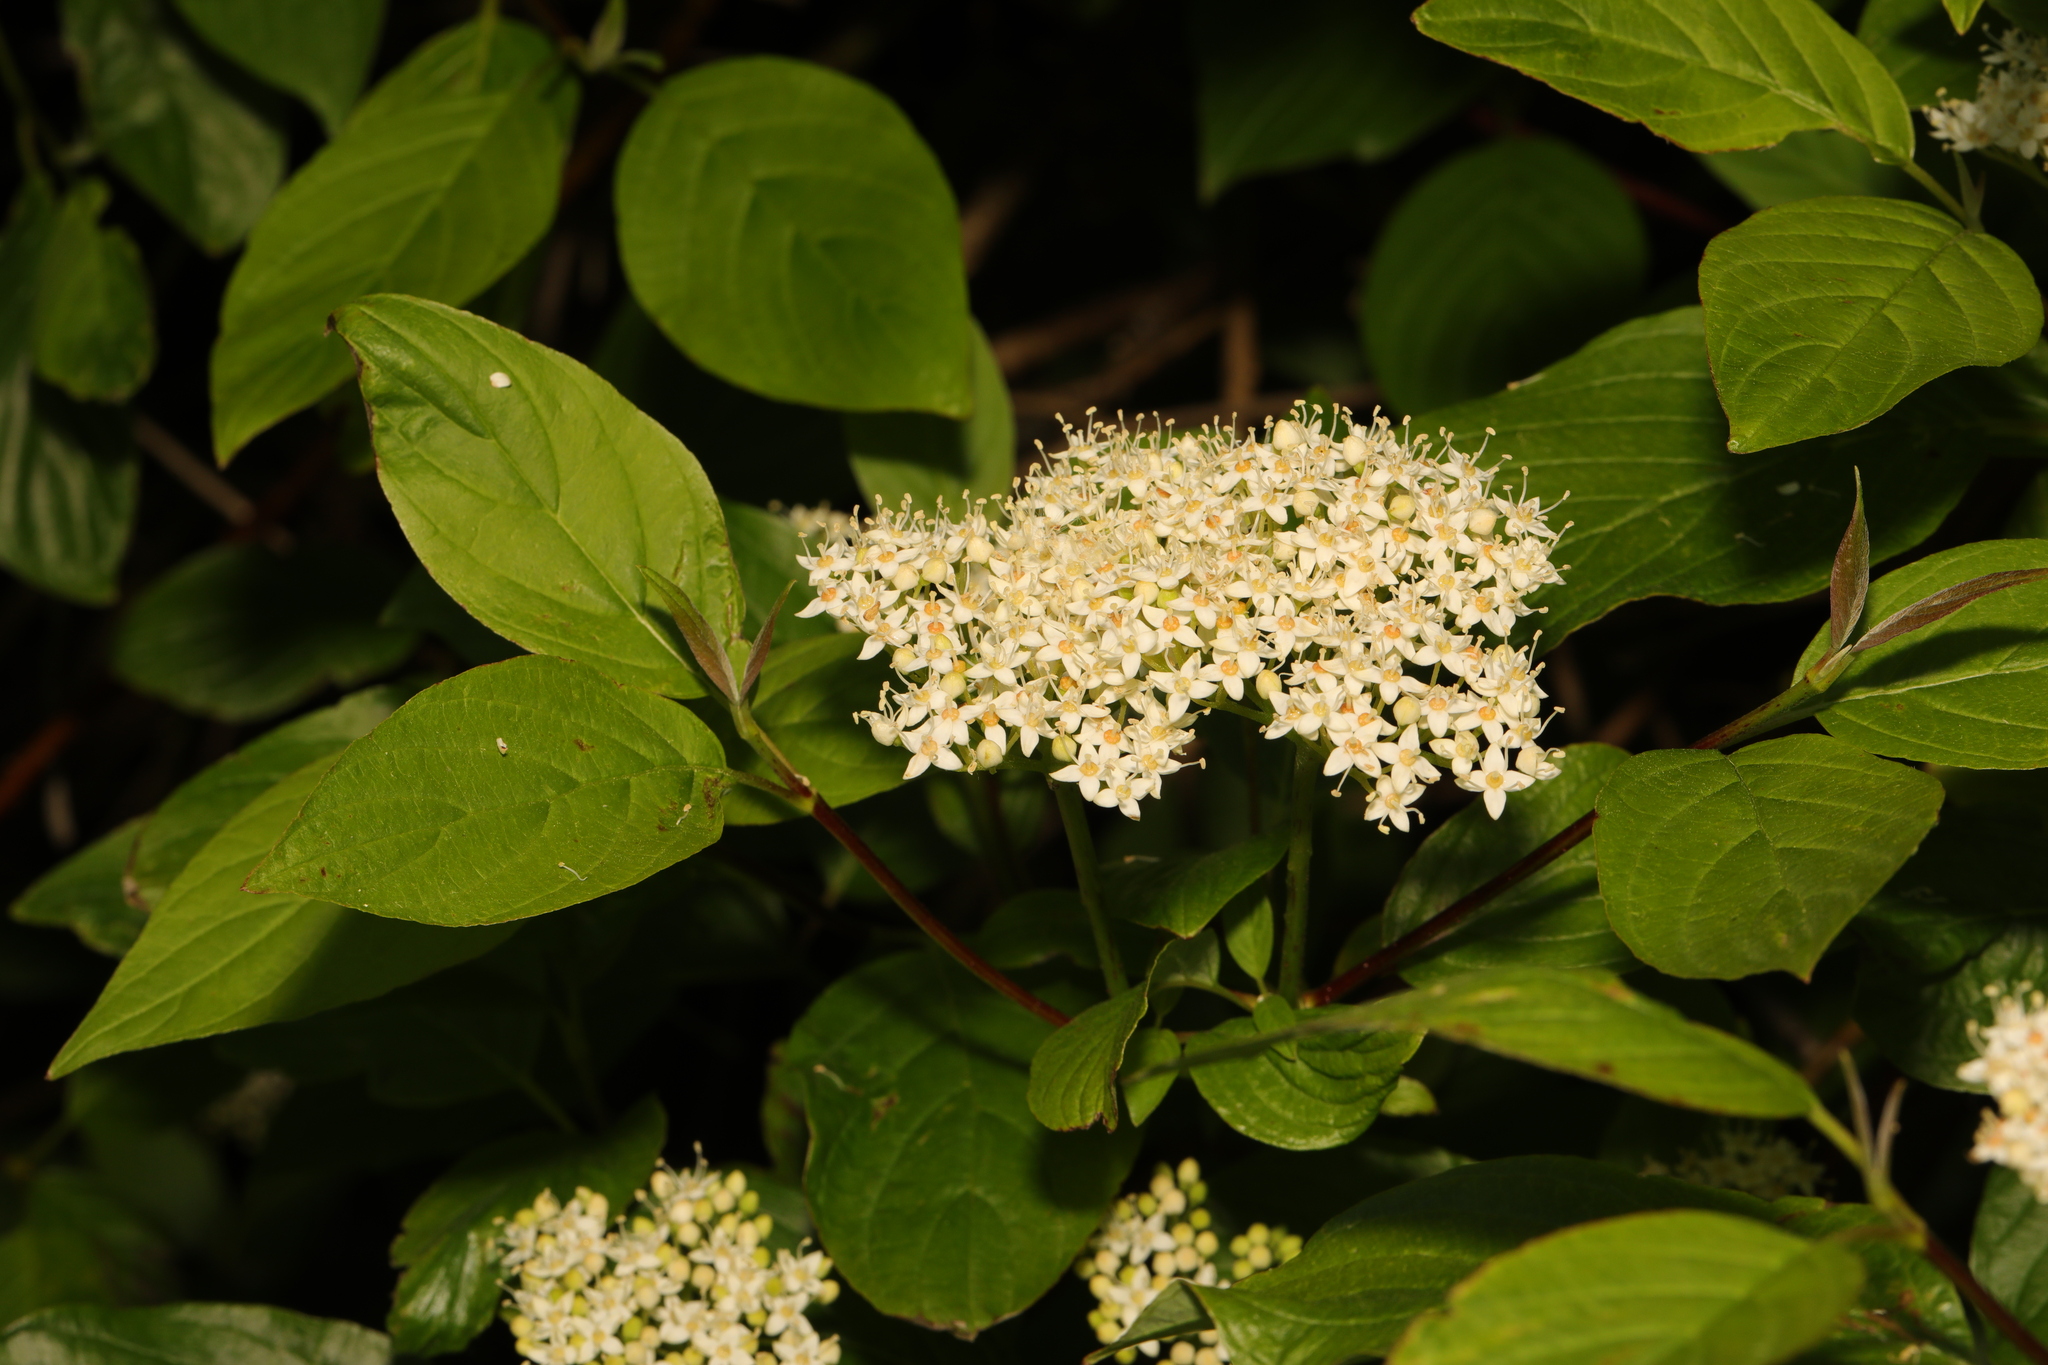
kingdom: Plantae
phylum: Tracheophyta
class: Magnoliopsida
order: Dipsacales
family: Viburnaceae
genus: Sambucus
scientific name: Sambucus nigra
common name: Elder
